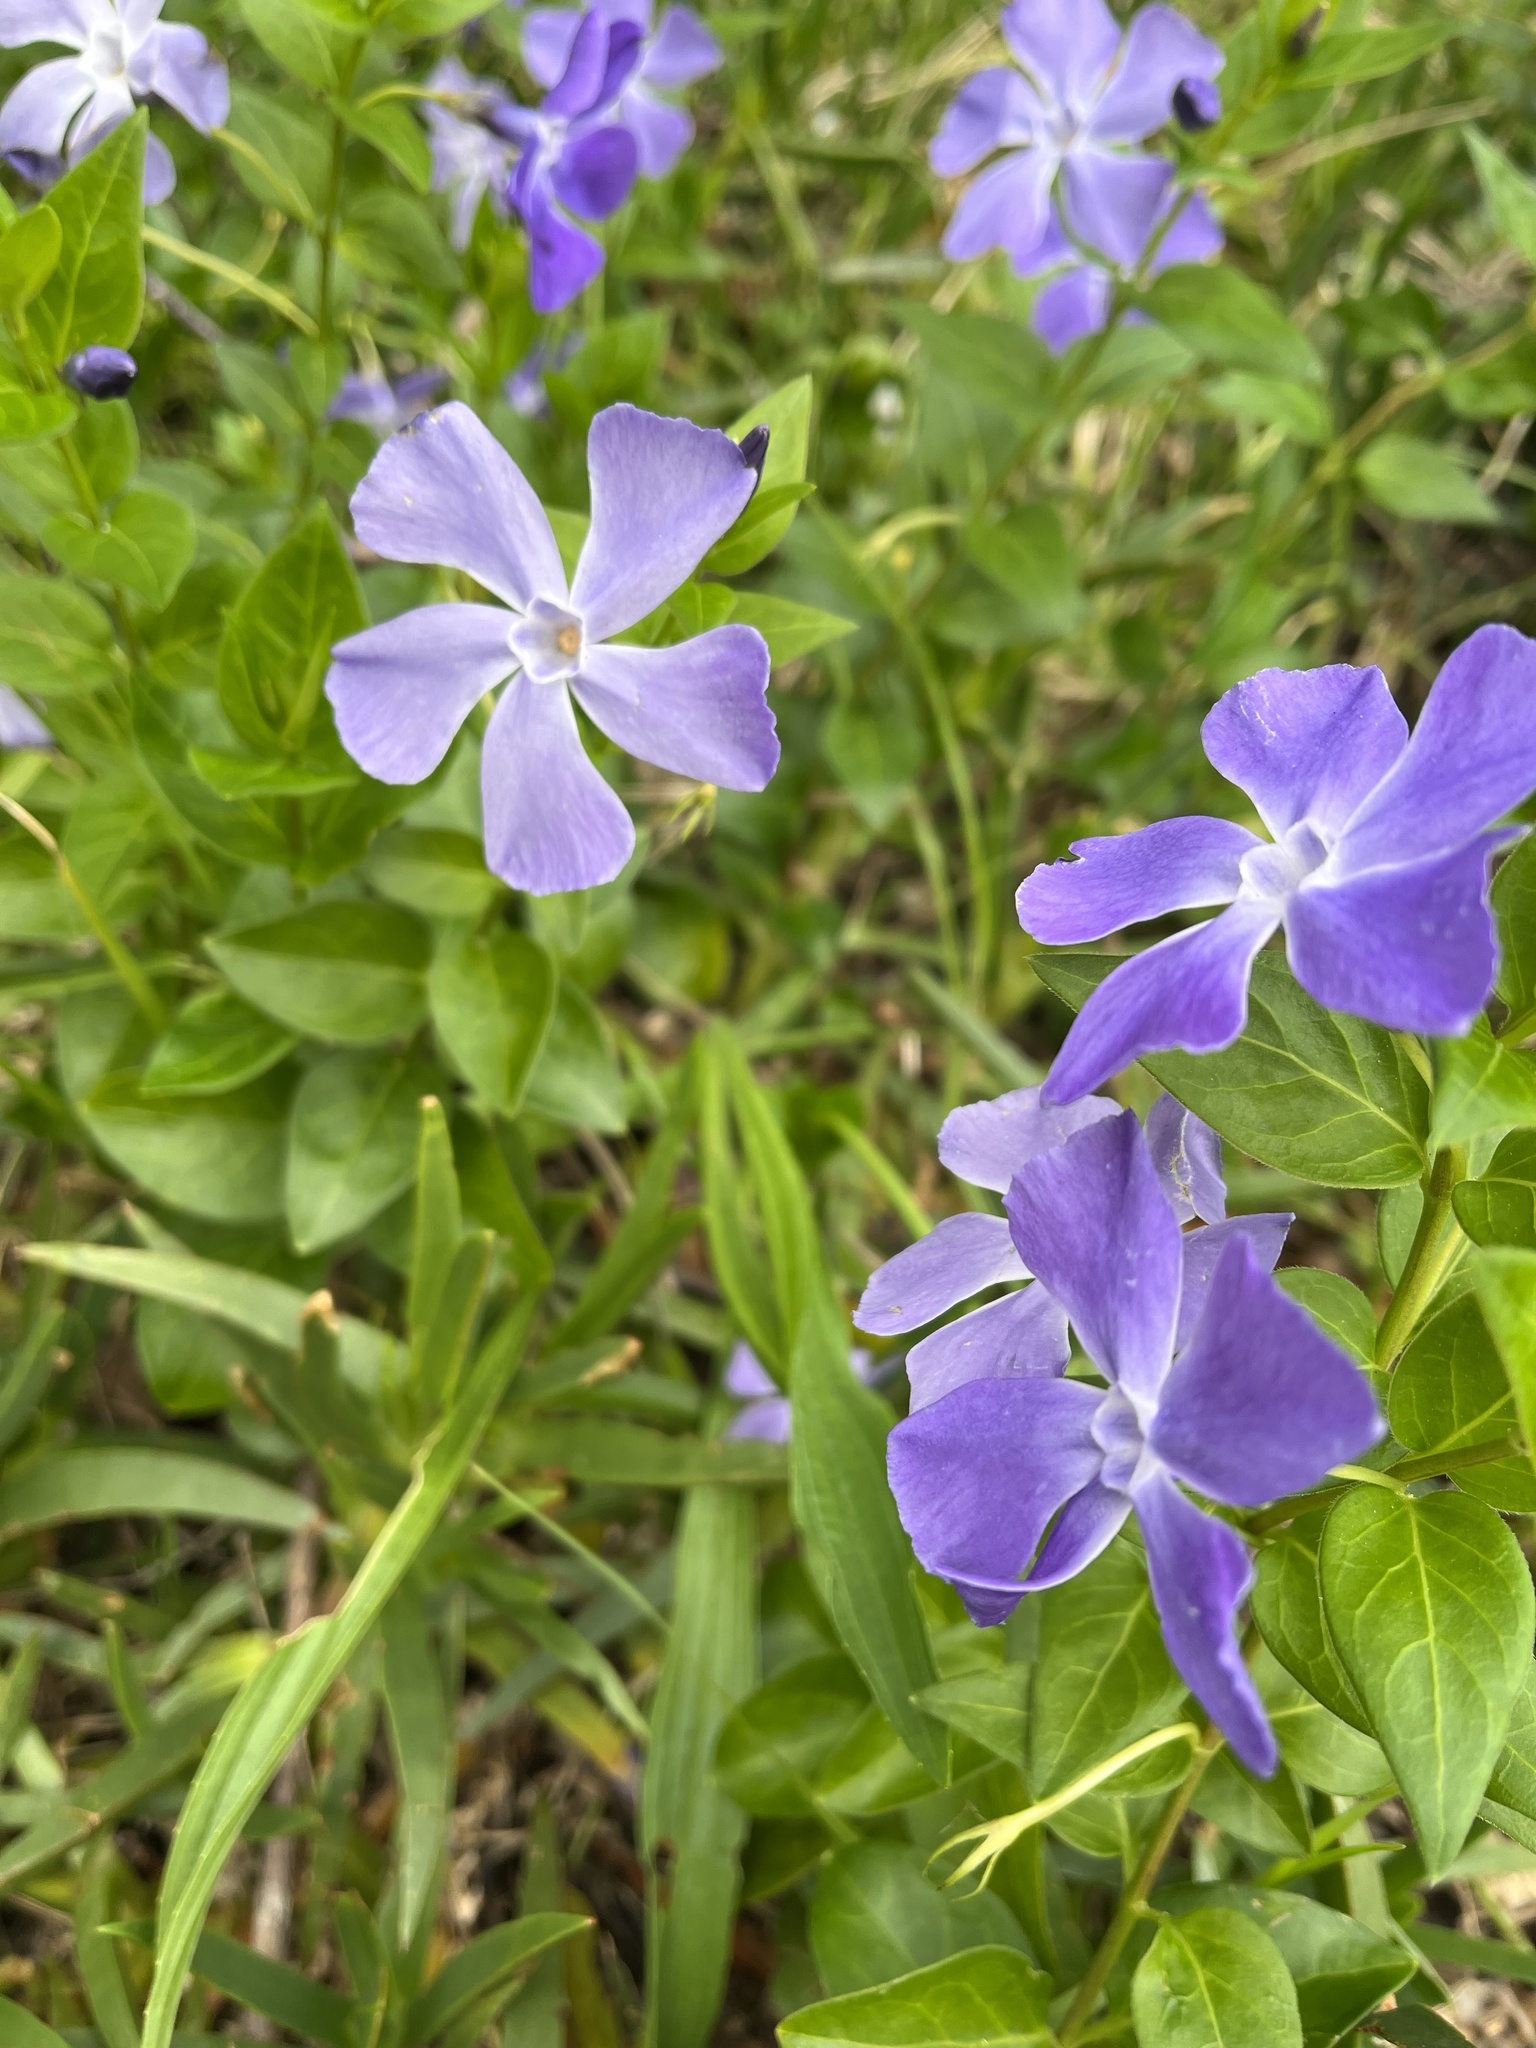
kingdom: Plantae
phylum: Tracheophyta
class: Magnoliopsida
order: Gentianales
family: Apocynaceae
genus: Vinca
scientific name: Vinca major
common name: Greater periwinkle
